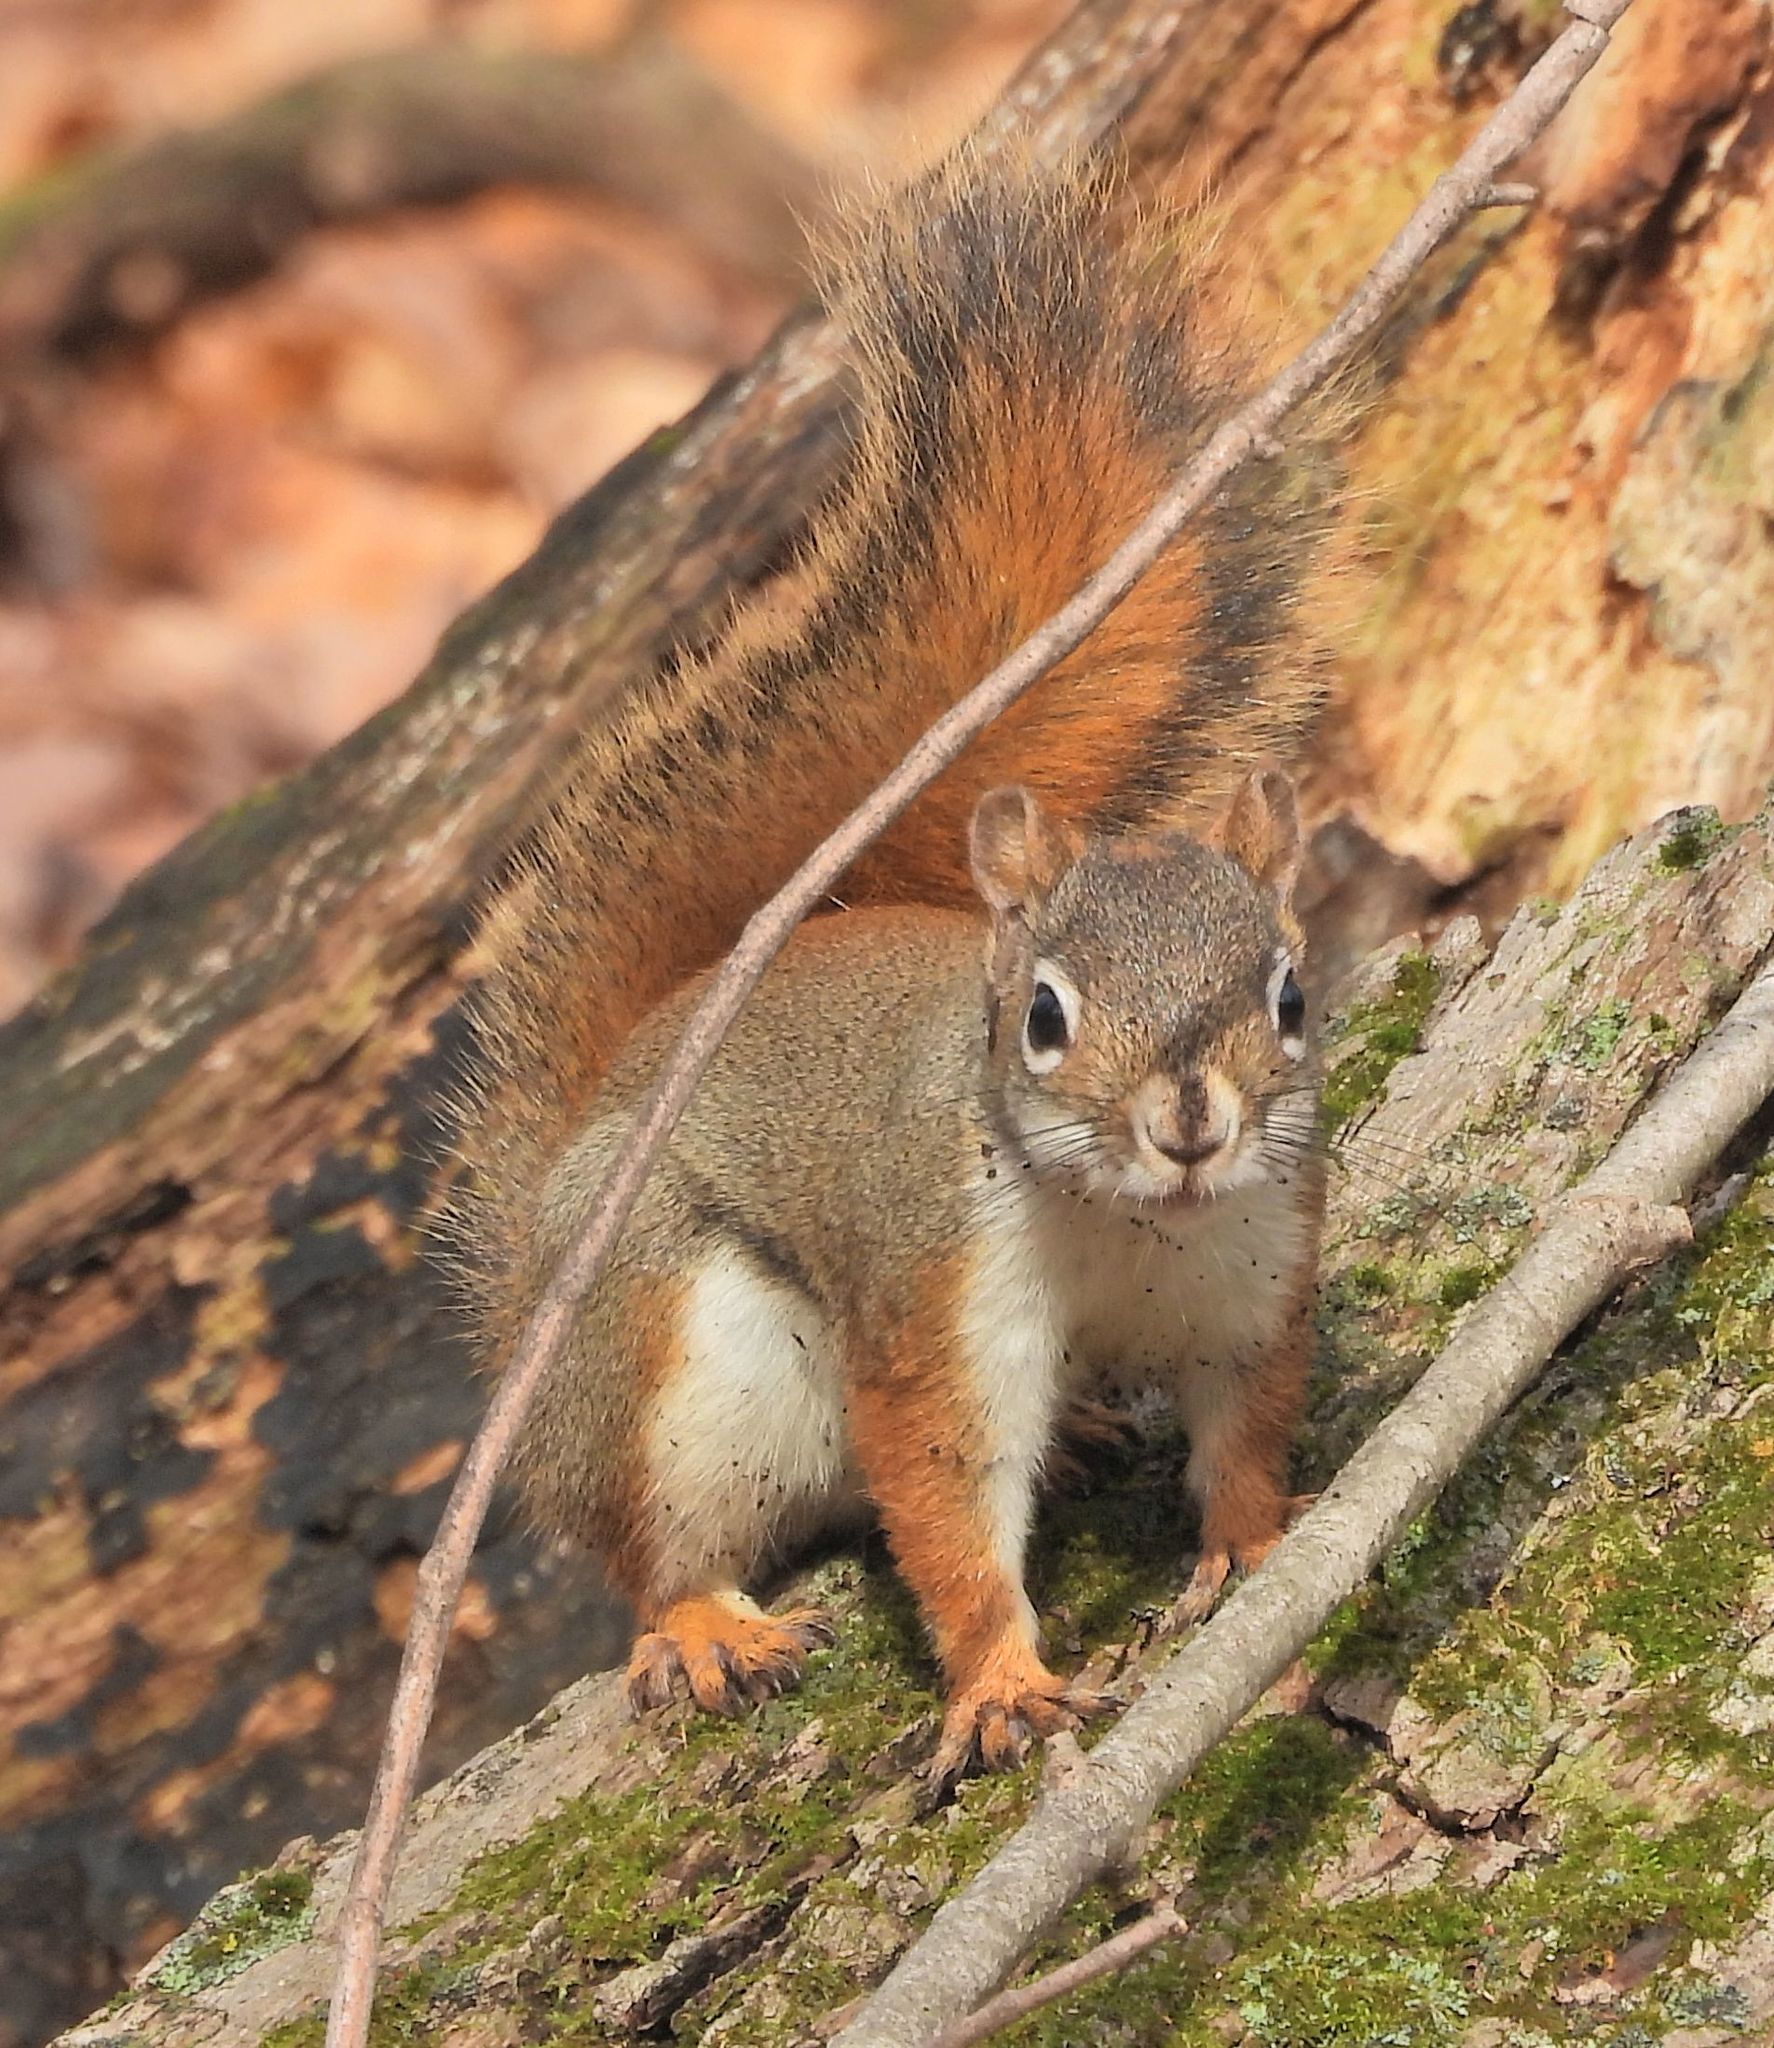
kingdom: Animalia
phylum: Chordata
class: Mammalia
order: Rodentia
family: Sciuridae
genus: Tamiasciurus
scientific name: Tamiasciurus hudsonicus
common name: Red squirrel
